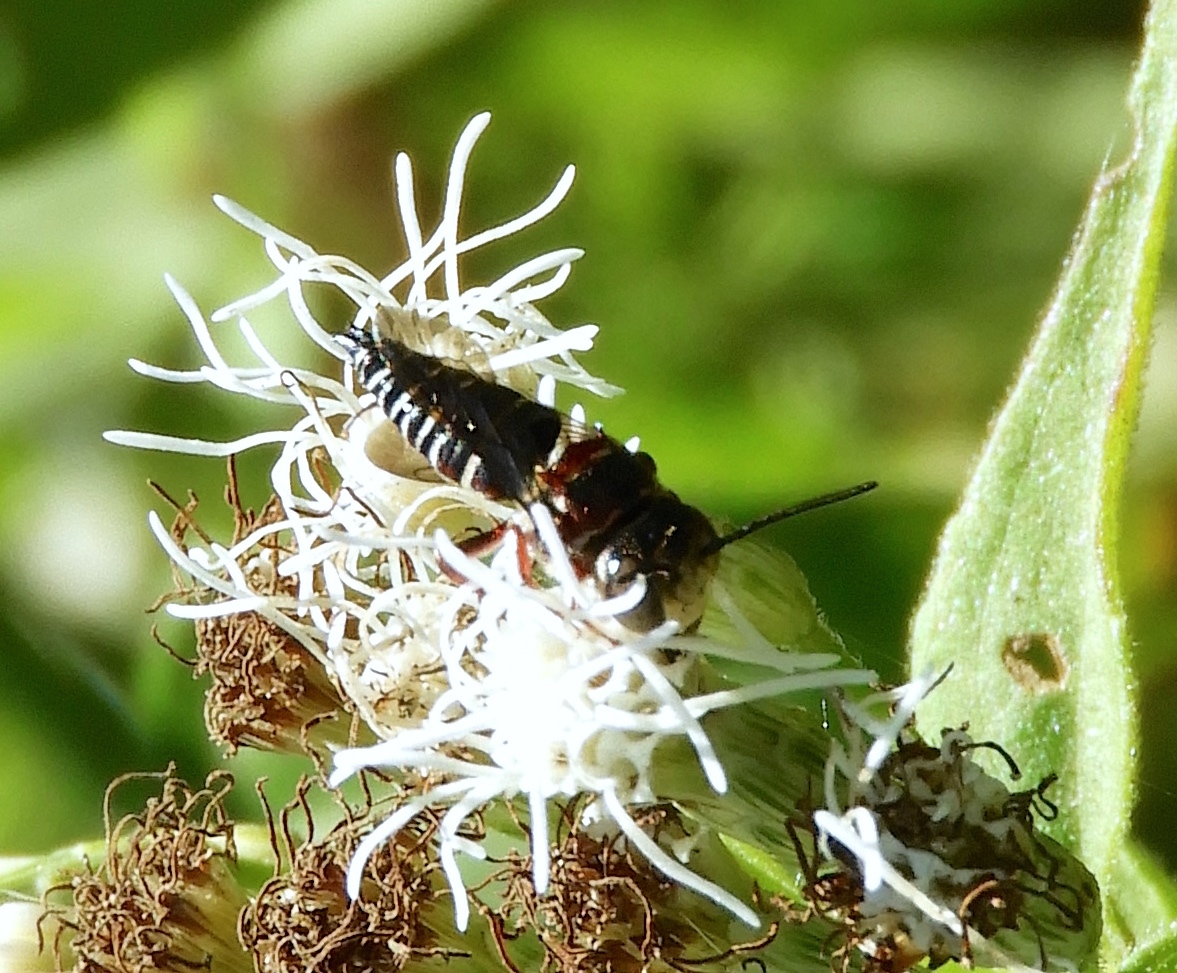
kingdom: Animalia
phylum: Arthropoda
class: Insecta
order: Hymenoptera
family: Megachilidae
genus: Coelioxys
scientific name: Coelioxys
